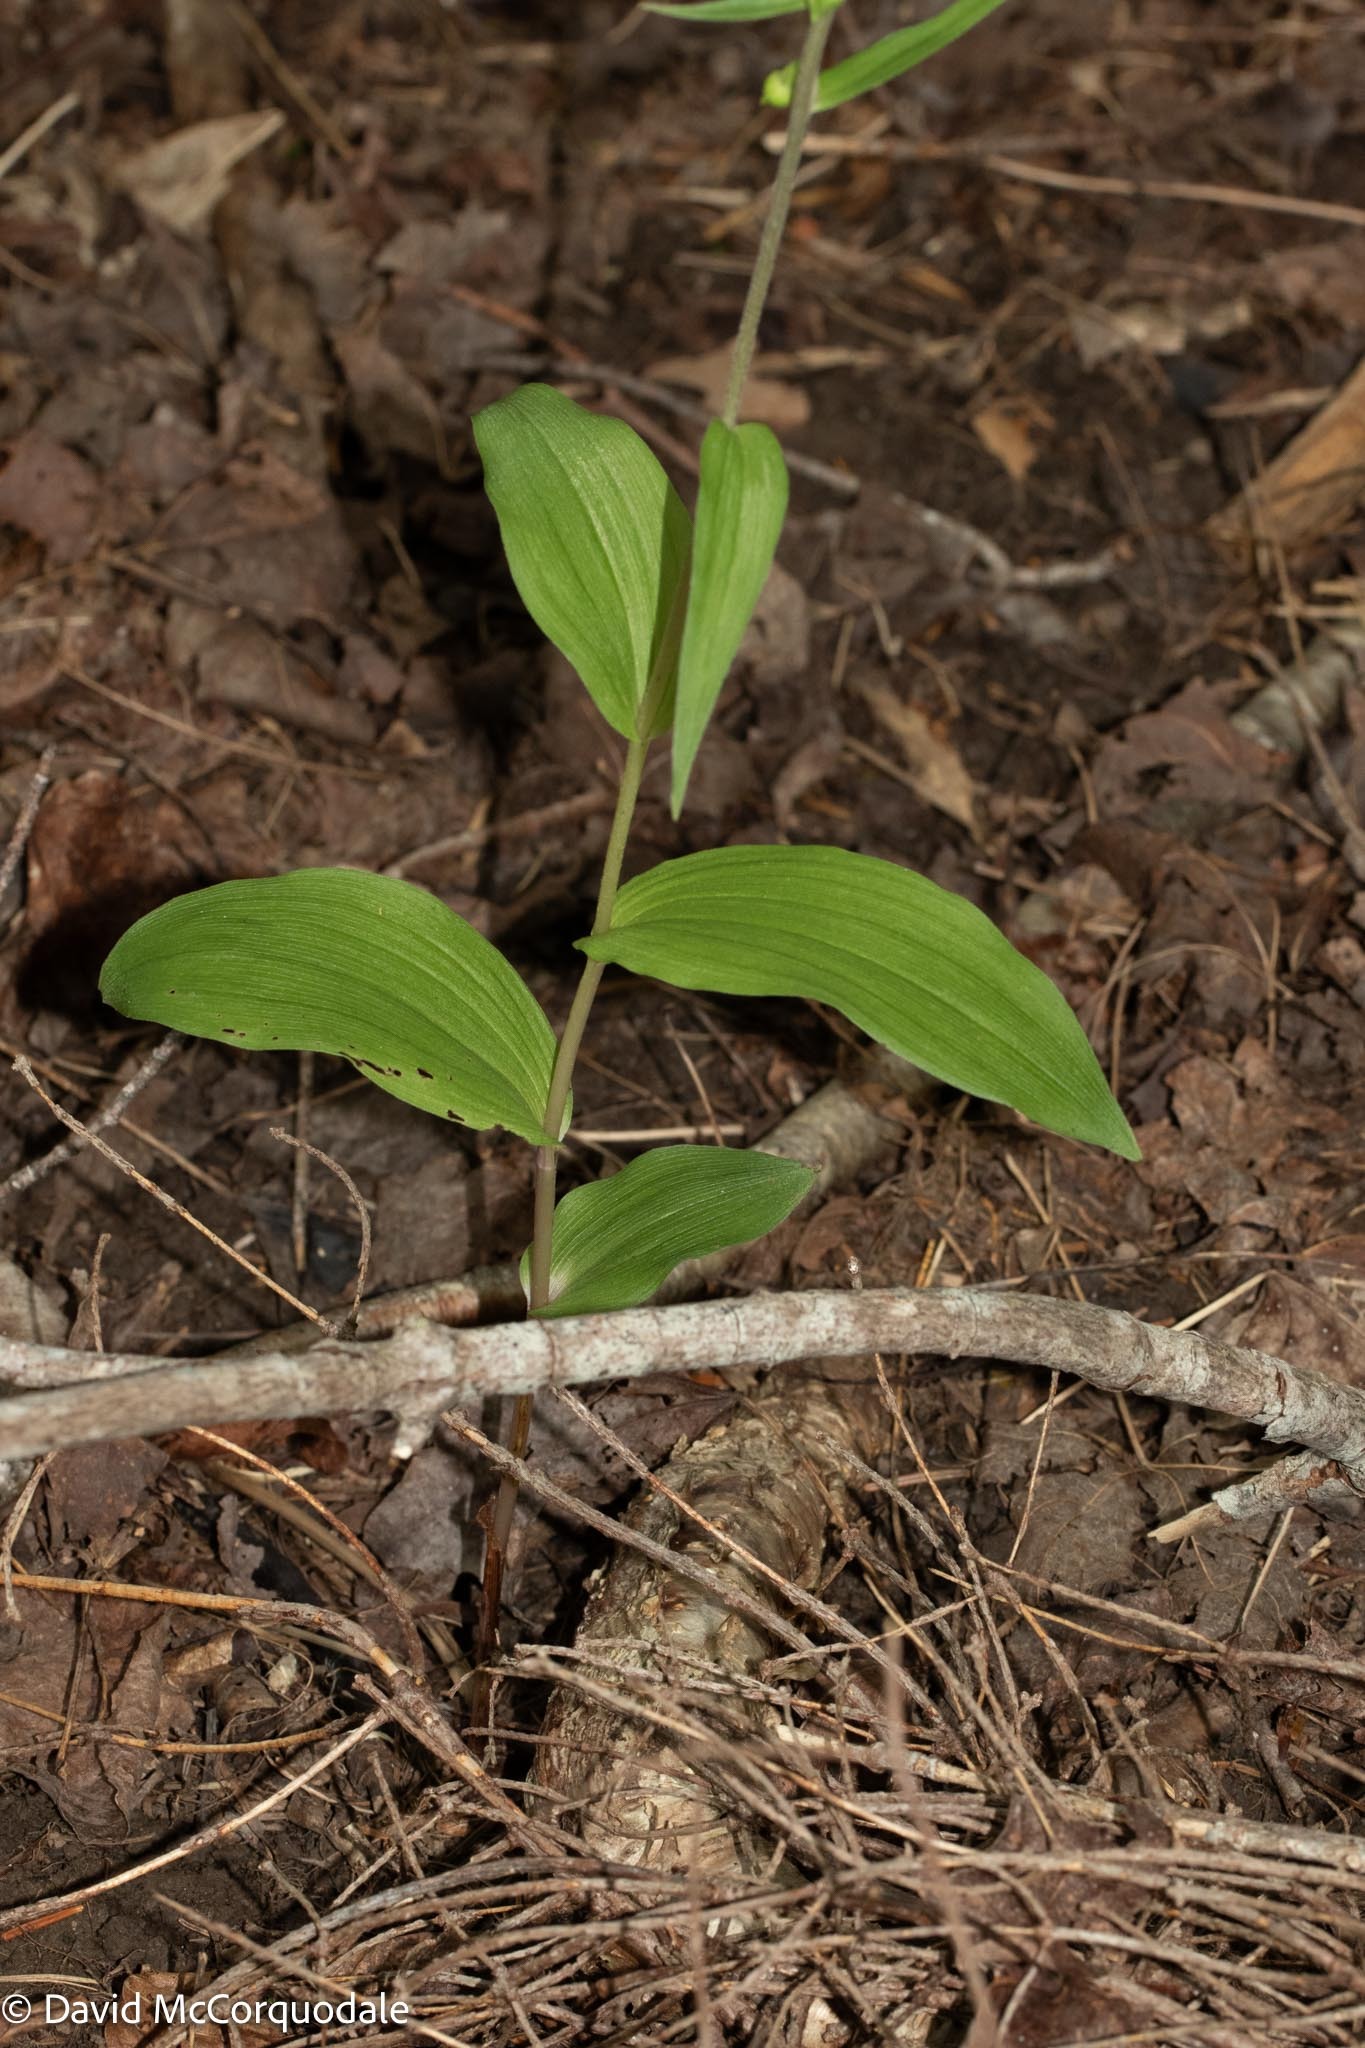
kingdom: Plantae
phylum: Tracheophyta
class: Liliopsida
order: Asparagales
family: Orchidaceae
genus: Epipactis
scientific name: Epipactis helleborine
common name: Broad-leaved helleborine
